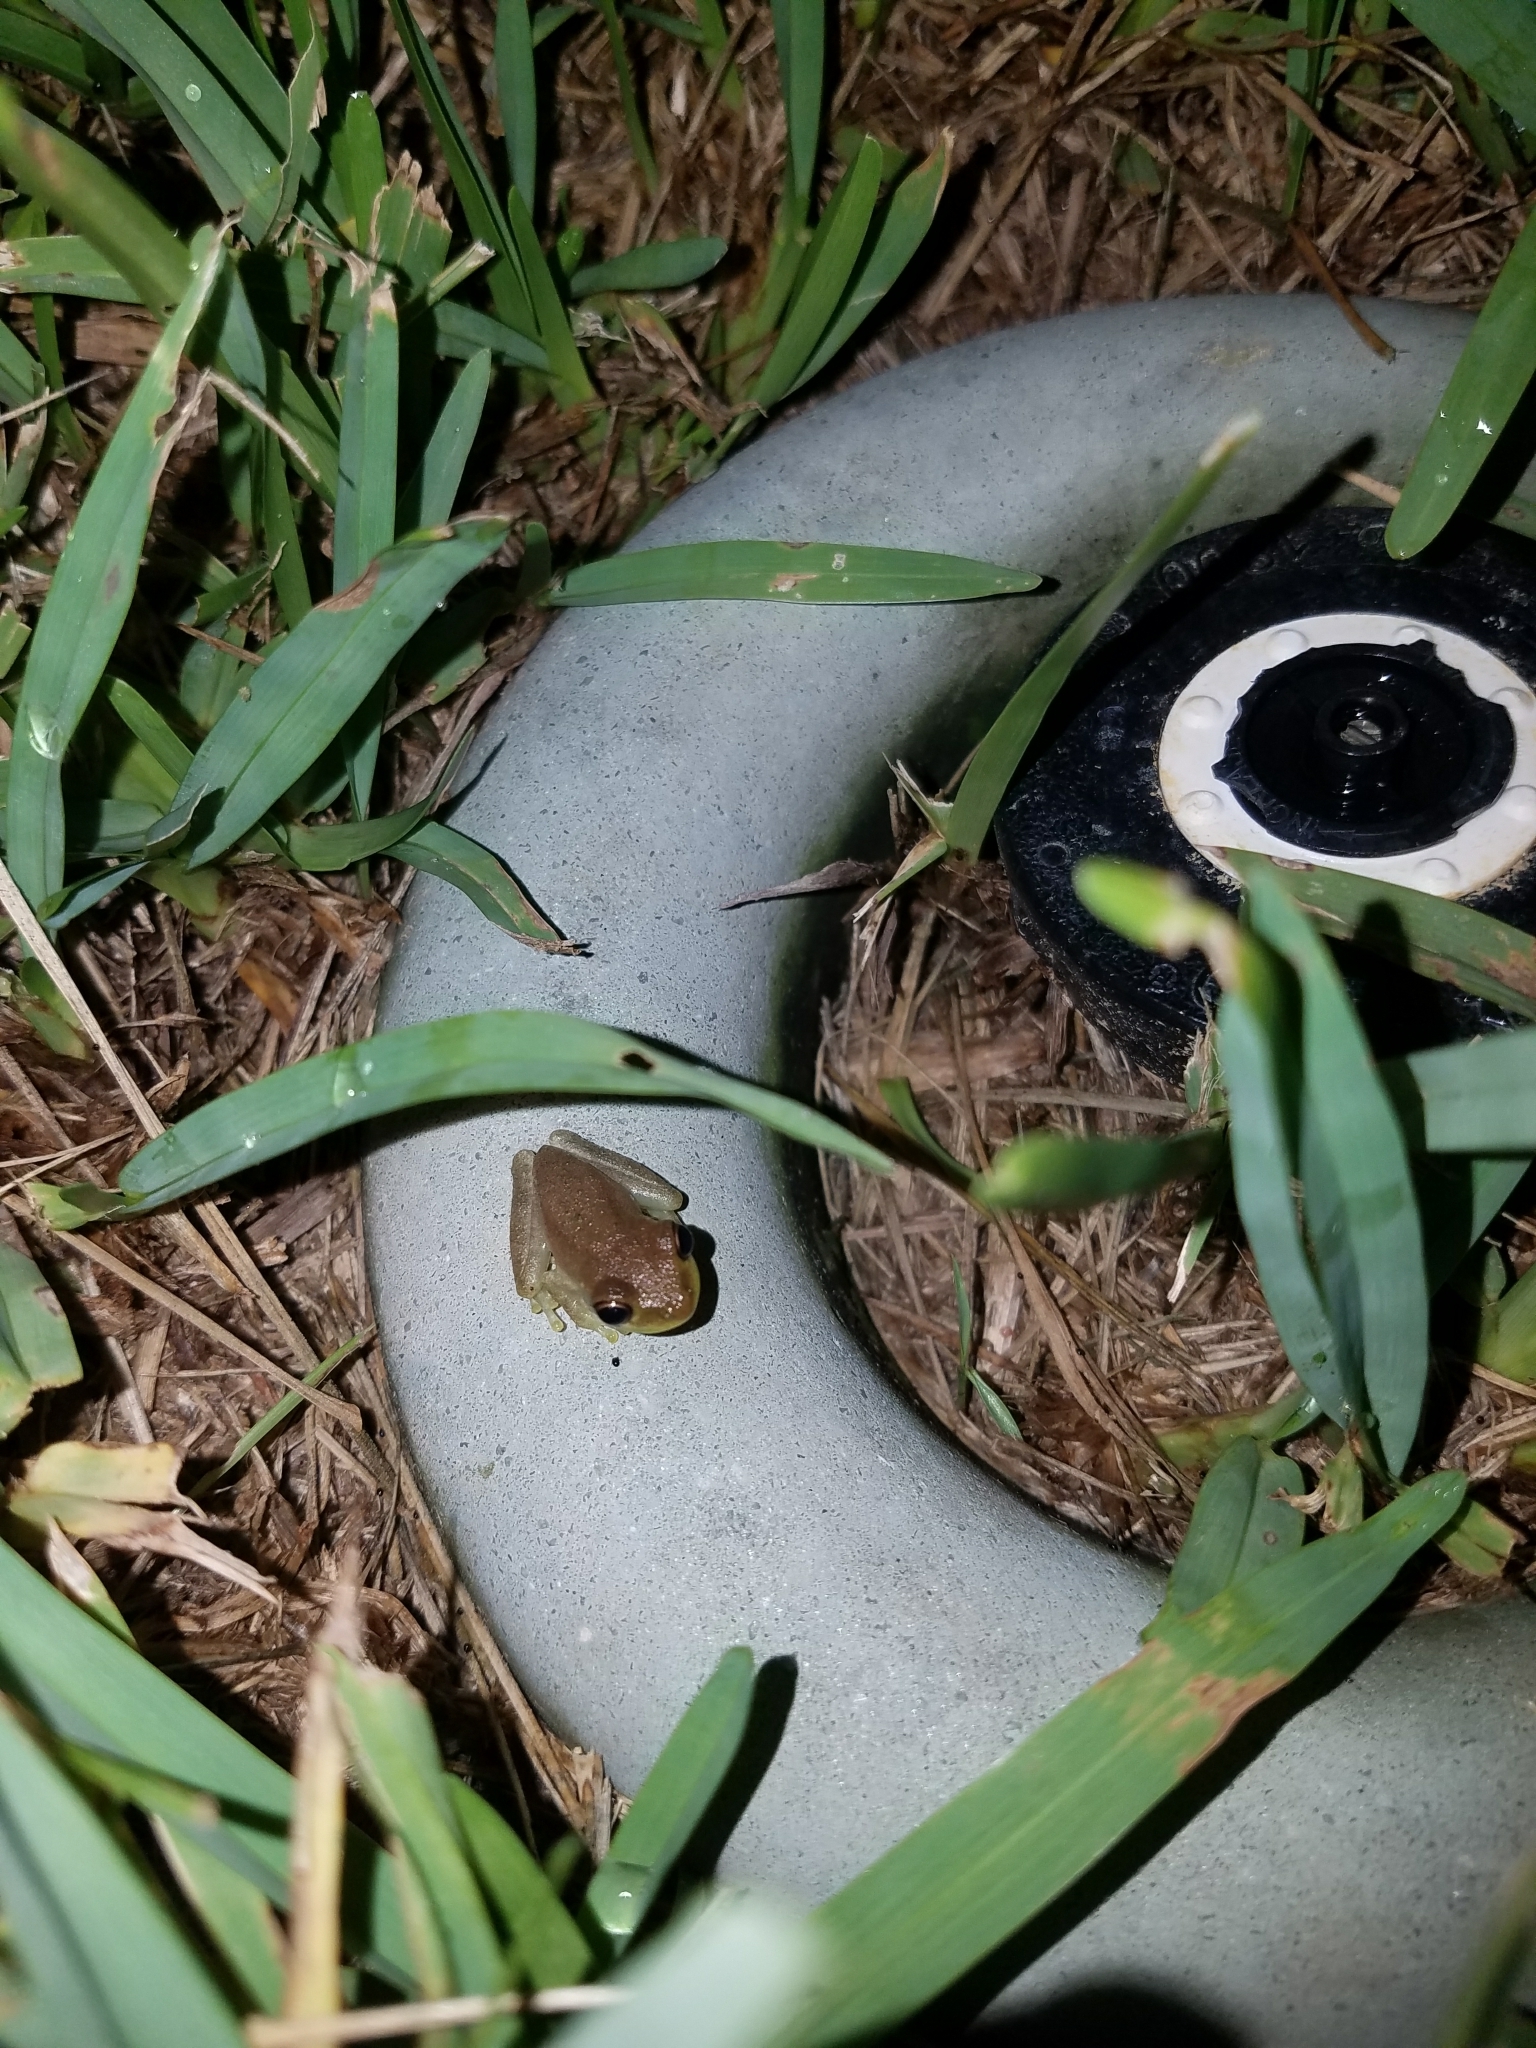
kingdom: Animalia
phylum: Chordata
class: Amphibia
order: Anura
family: Hylidae
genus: Osteopilus
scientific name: Osteopilus septentrionalis
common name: Cuban treefrog
